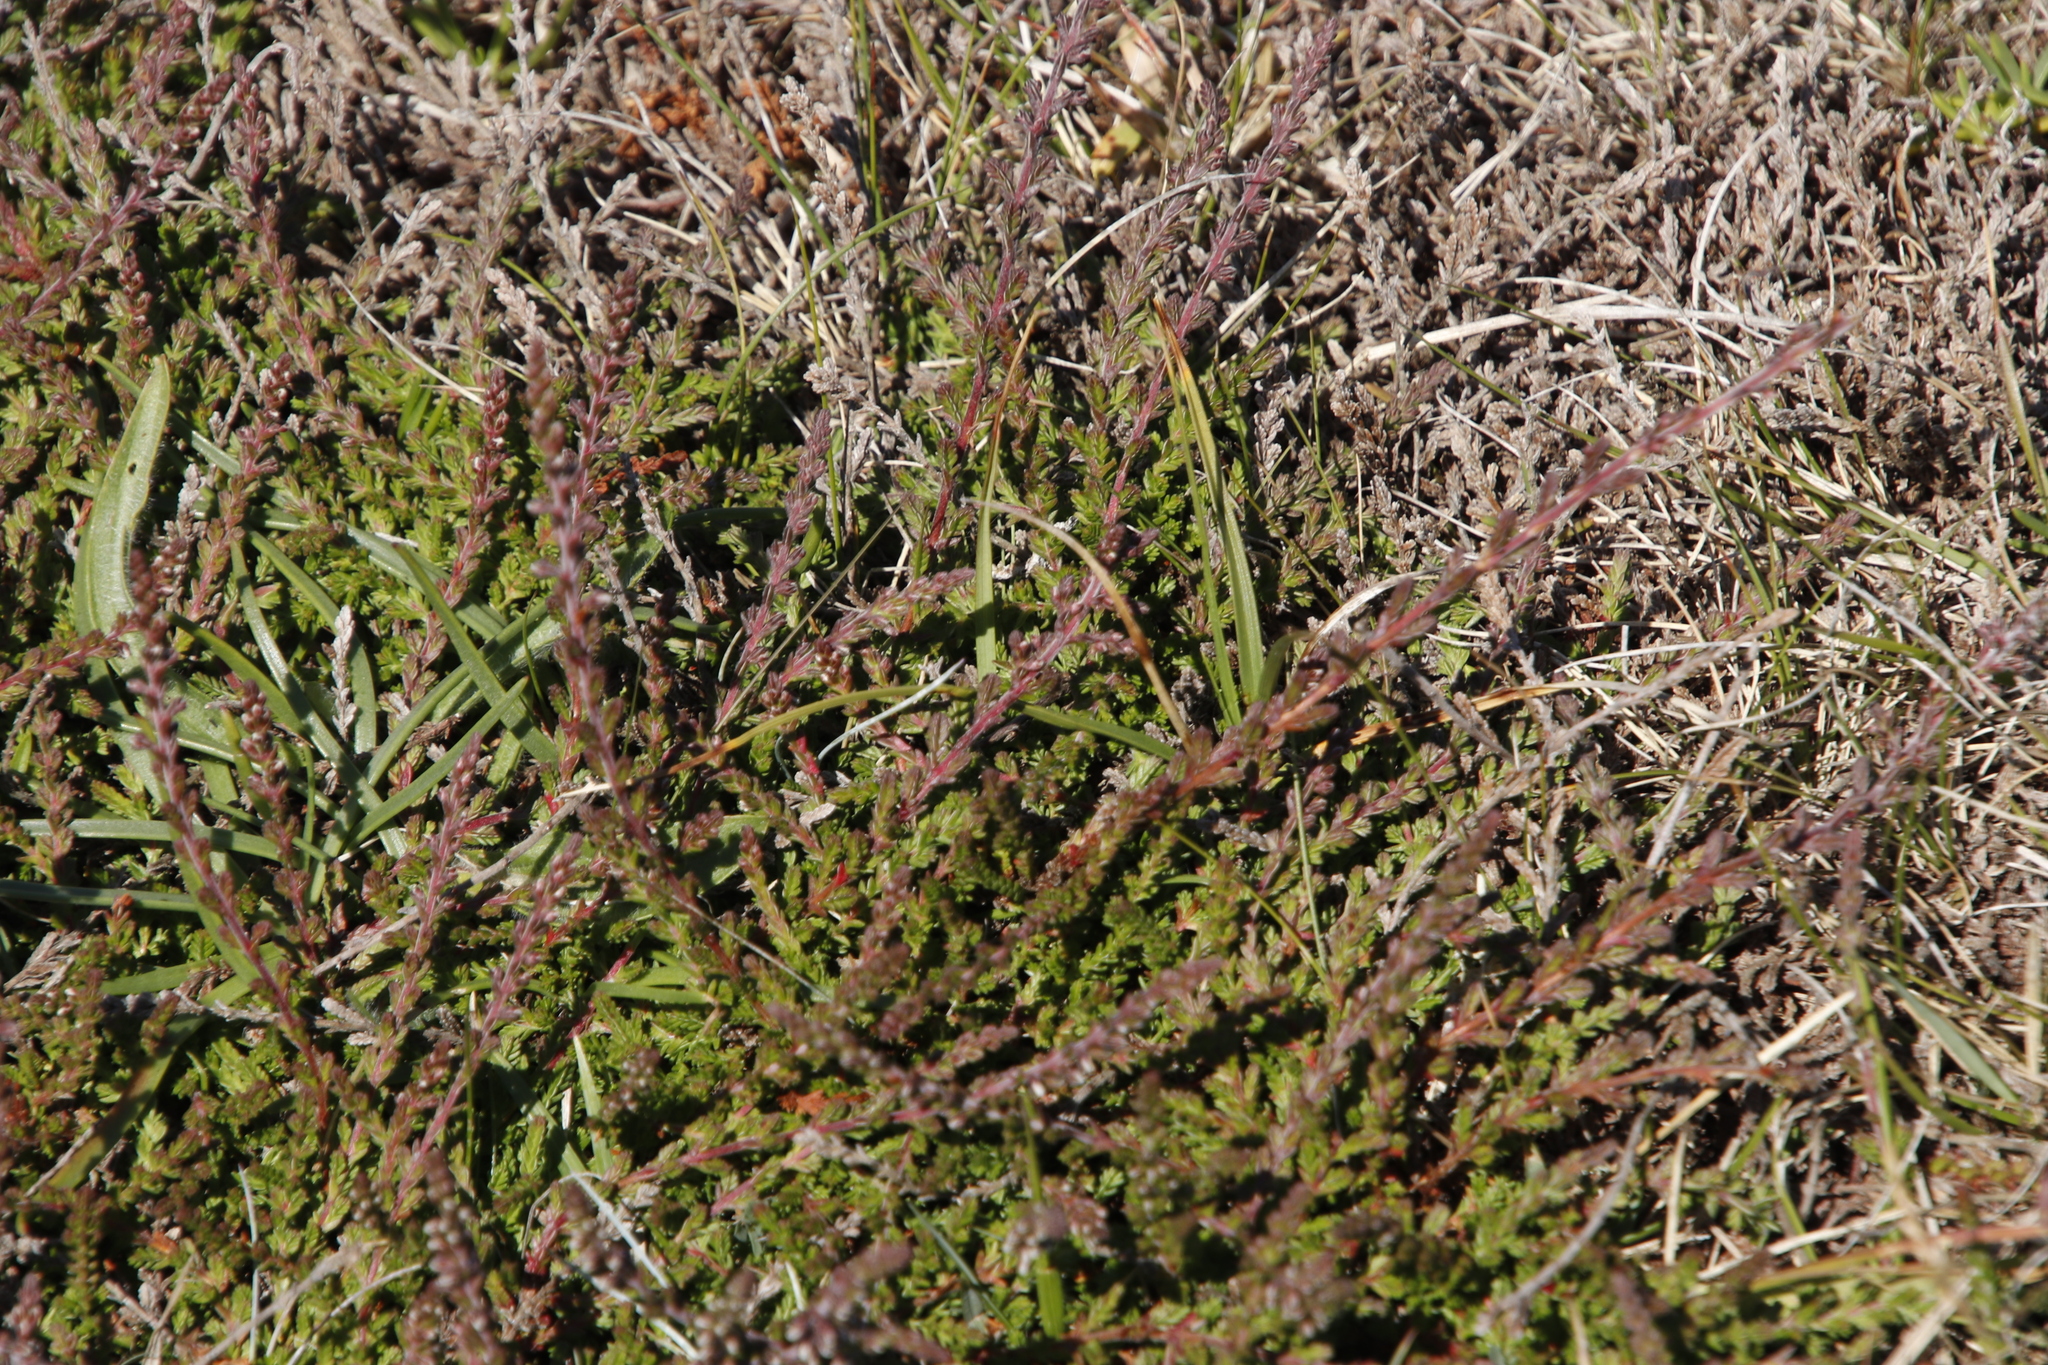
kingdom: Plantae
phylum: Tracheophyta
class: Magnoliopsida
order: Ericales
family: Ericaceae
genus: Calluna
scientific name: Calluna vulgaris
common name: Heather
